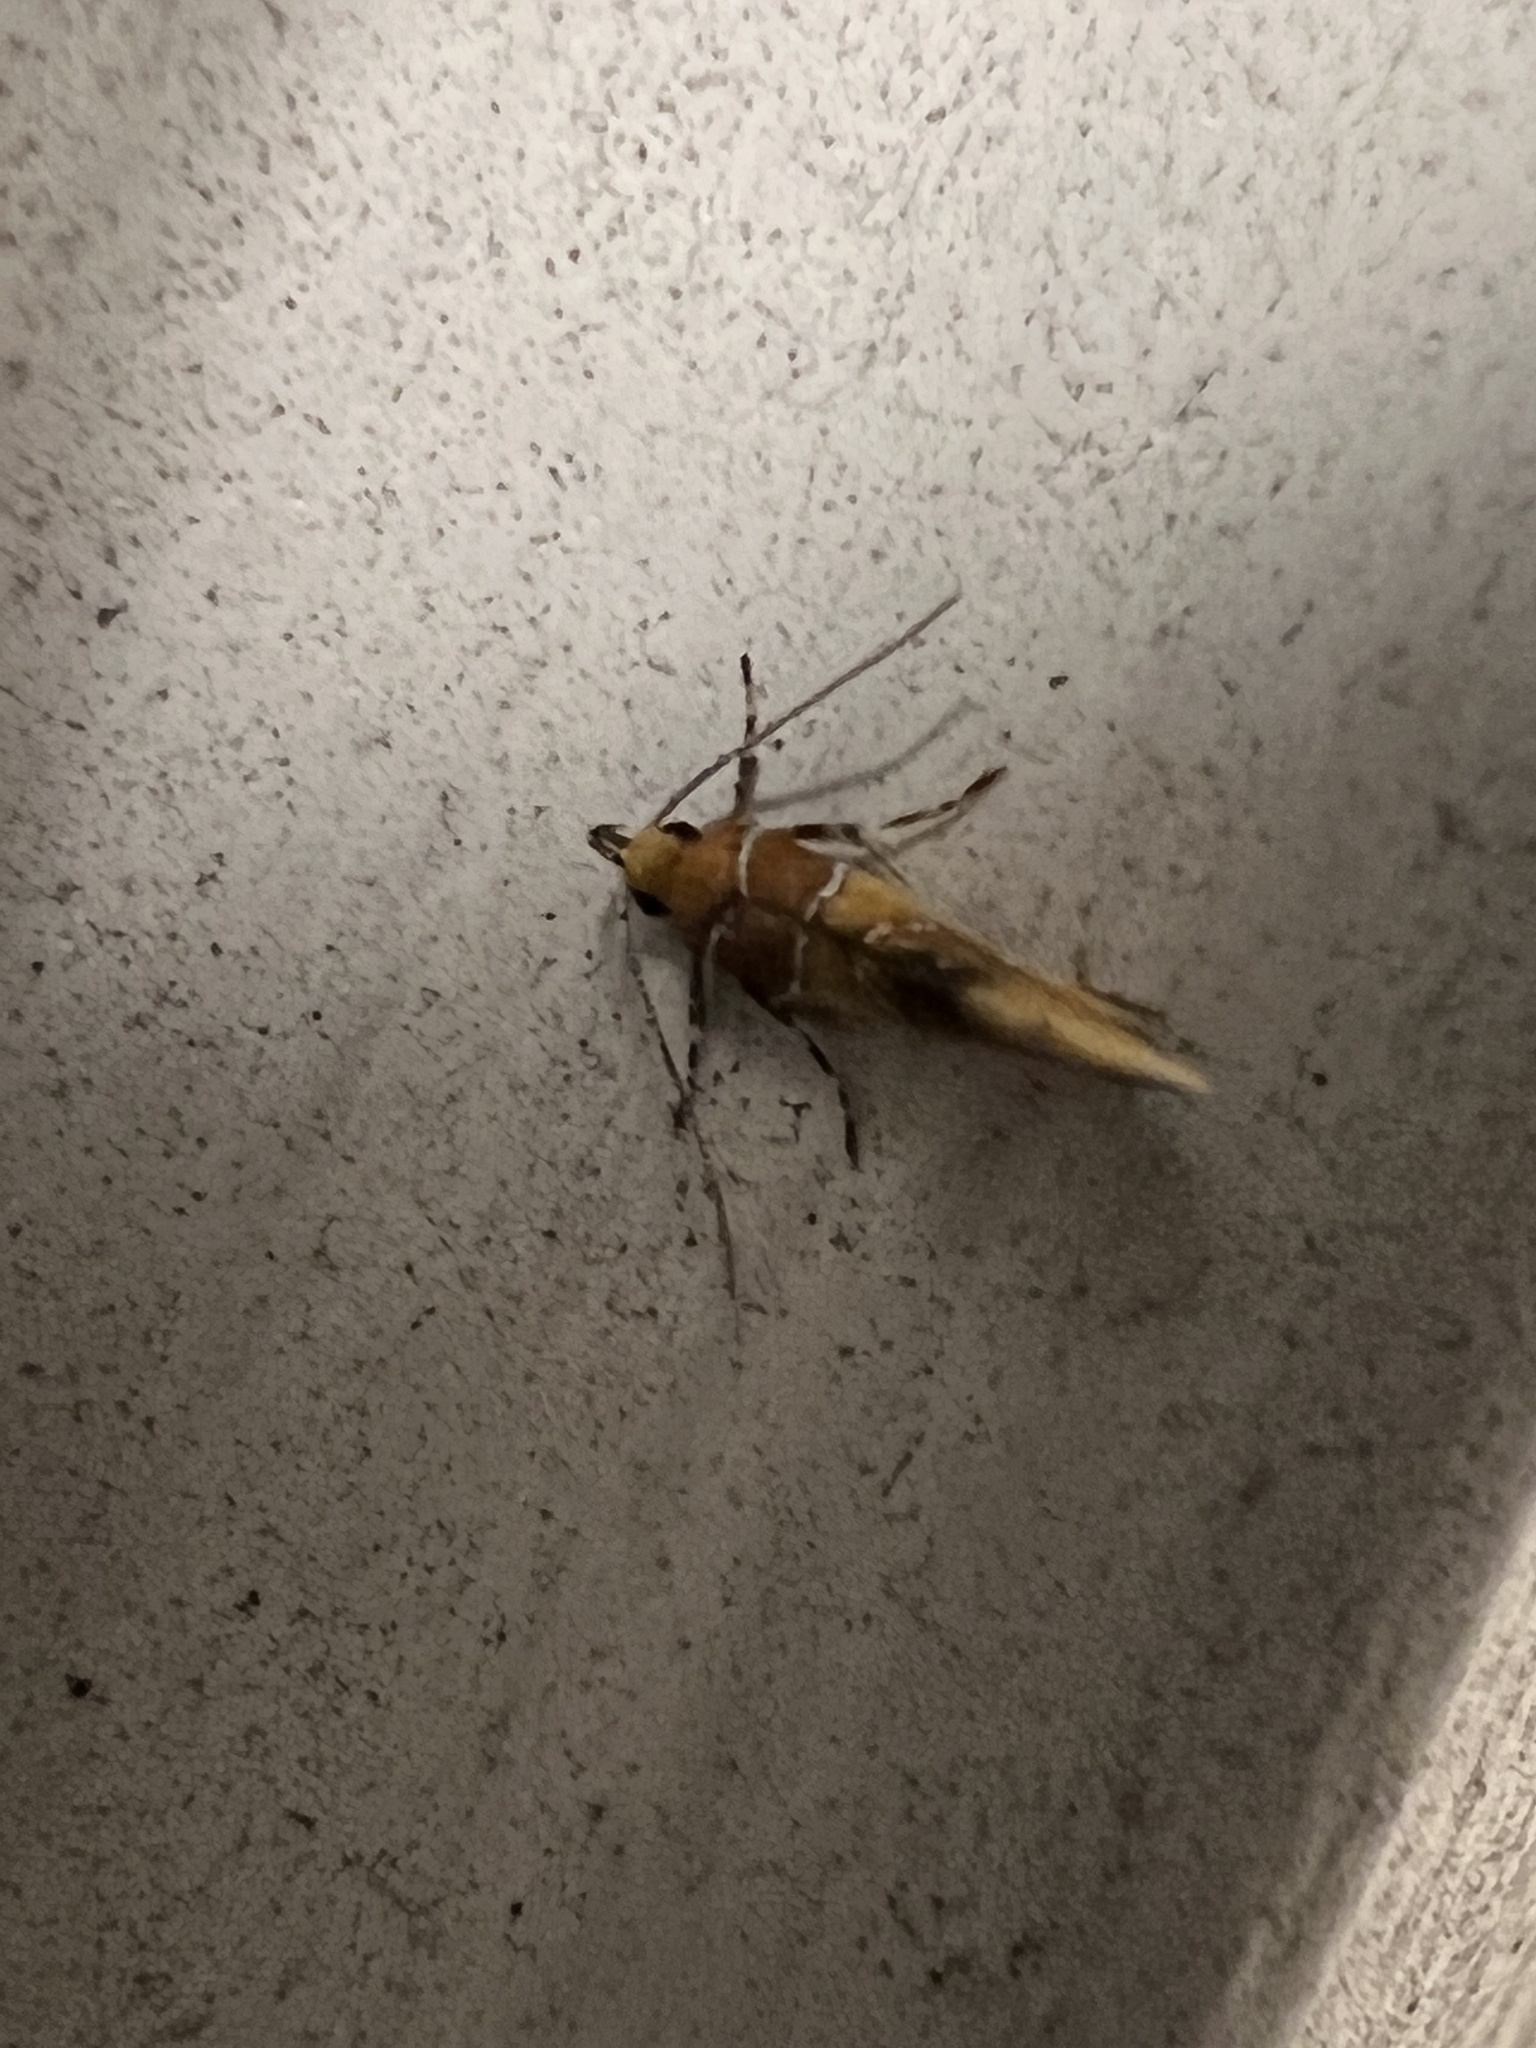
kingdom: Animalia
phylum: Arthropoda
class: Insecta
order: Lepidoptera
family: Oecophoridae
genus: Callima
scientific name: Callima argenticinctella
